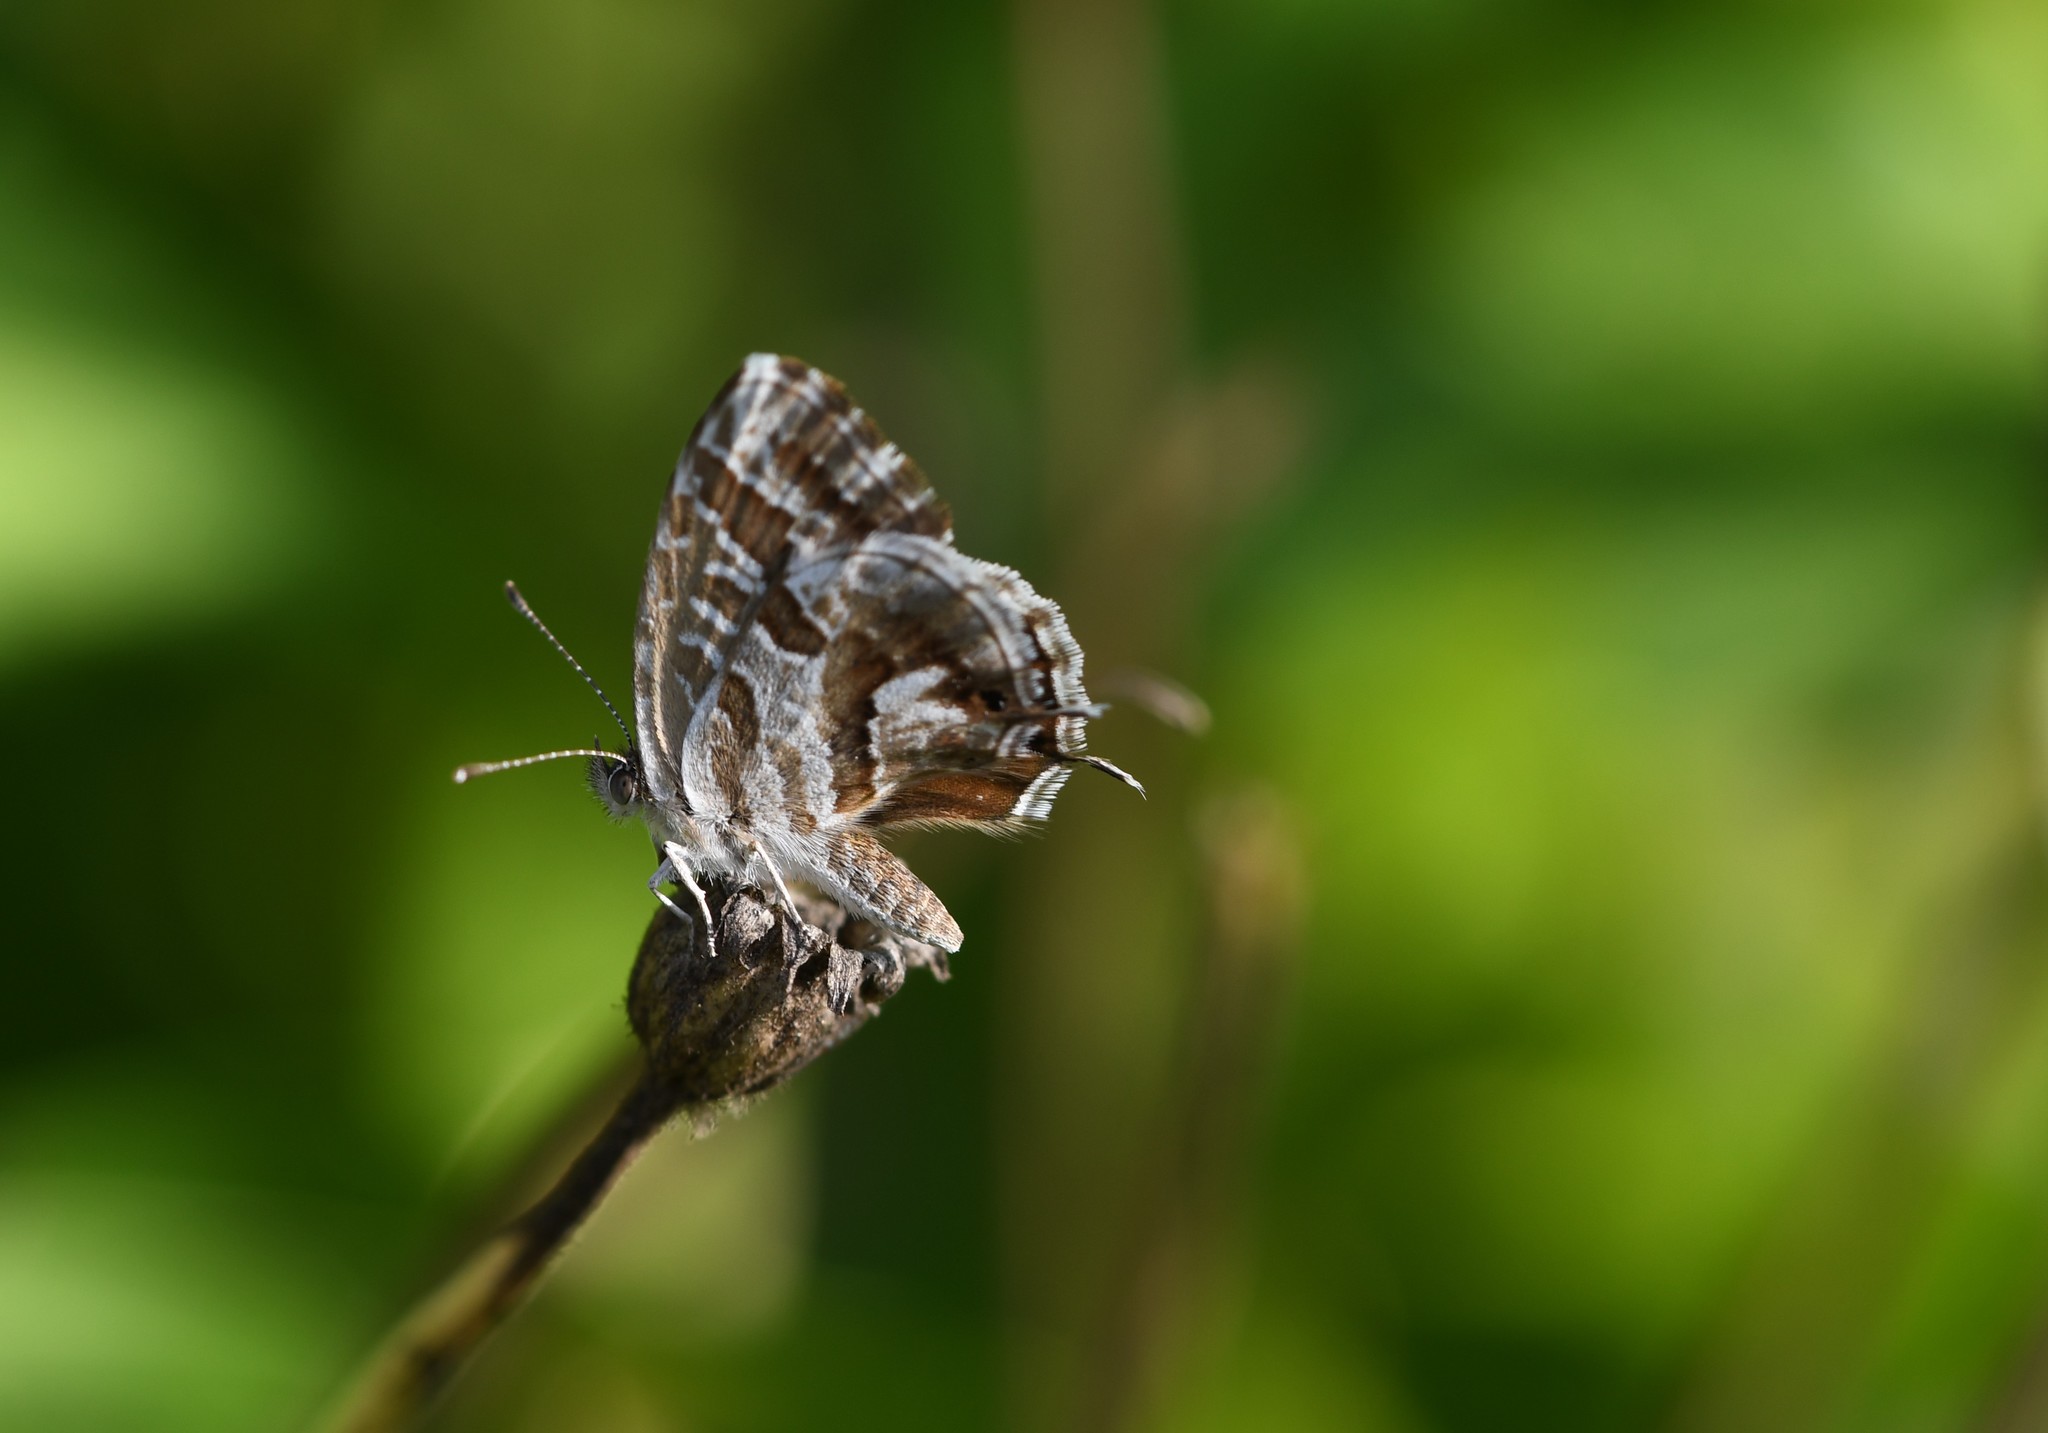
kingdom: Animalia
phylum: Arthropoda
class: Insecta
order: Lepidoptera
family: Lycaenidae
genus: Cacyreus
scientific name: Cacyreus marshalli
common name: Geranium bronze
